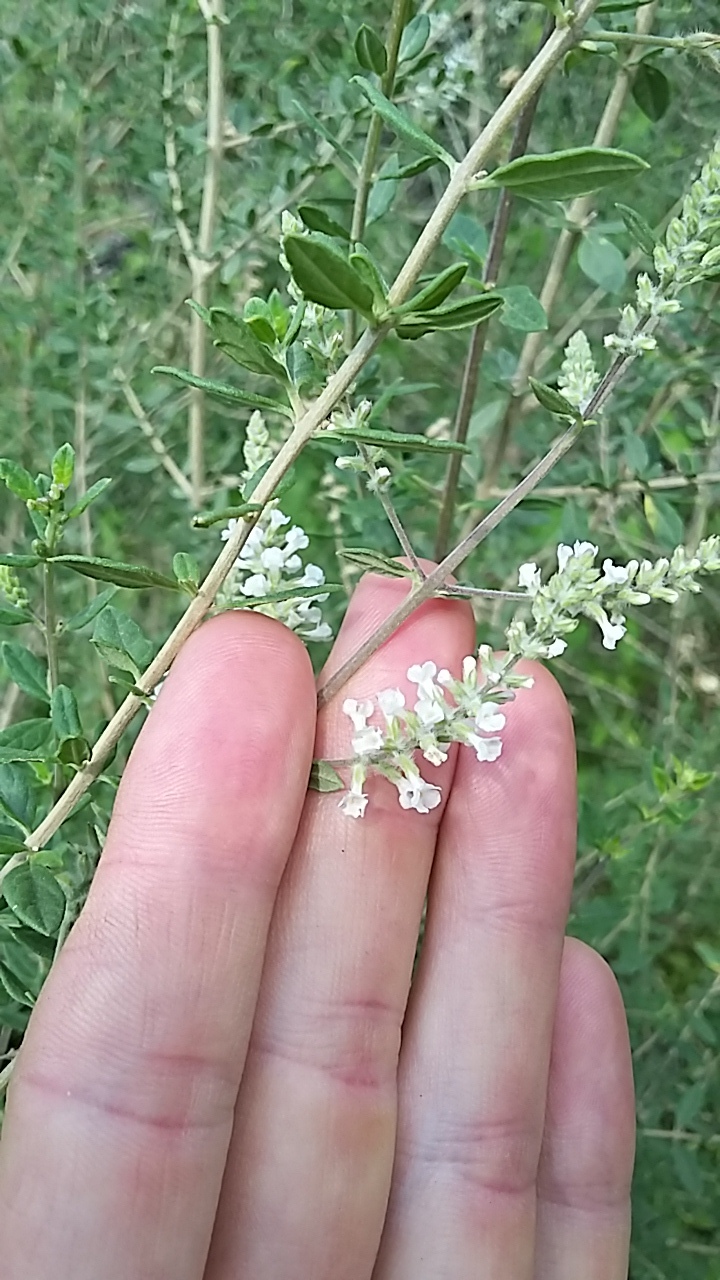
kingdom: Plantae
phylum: Tracheophyta
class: Magnoliopsida
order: Lamiales
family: Verbenaceae
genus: Aloysia
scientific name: Aloysia gratissima
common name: Common bee-brush
